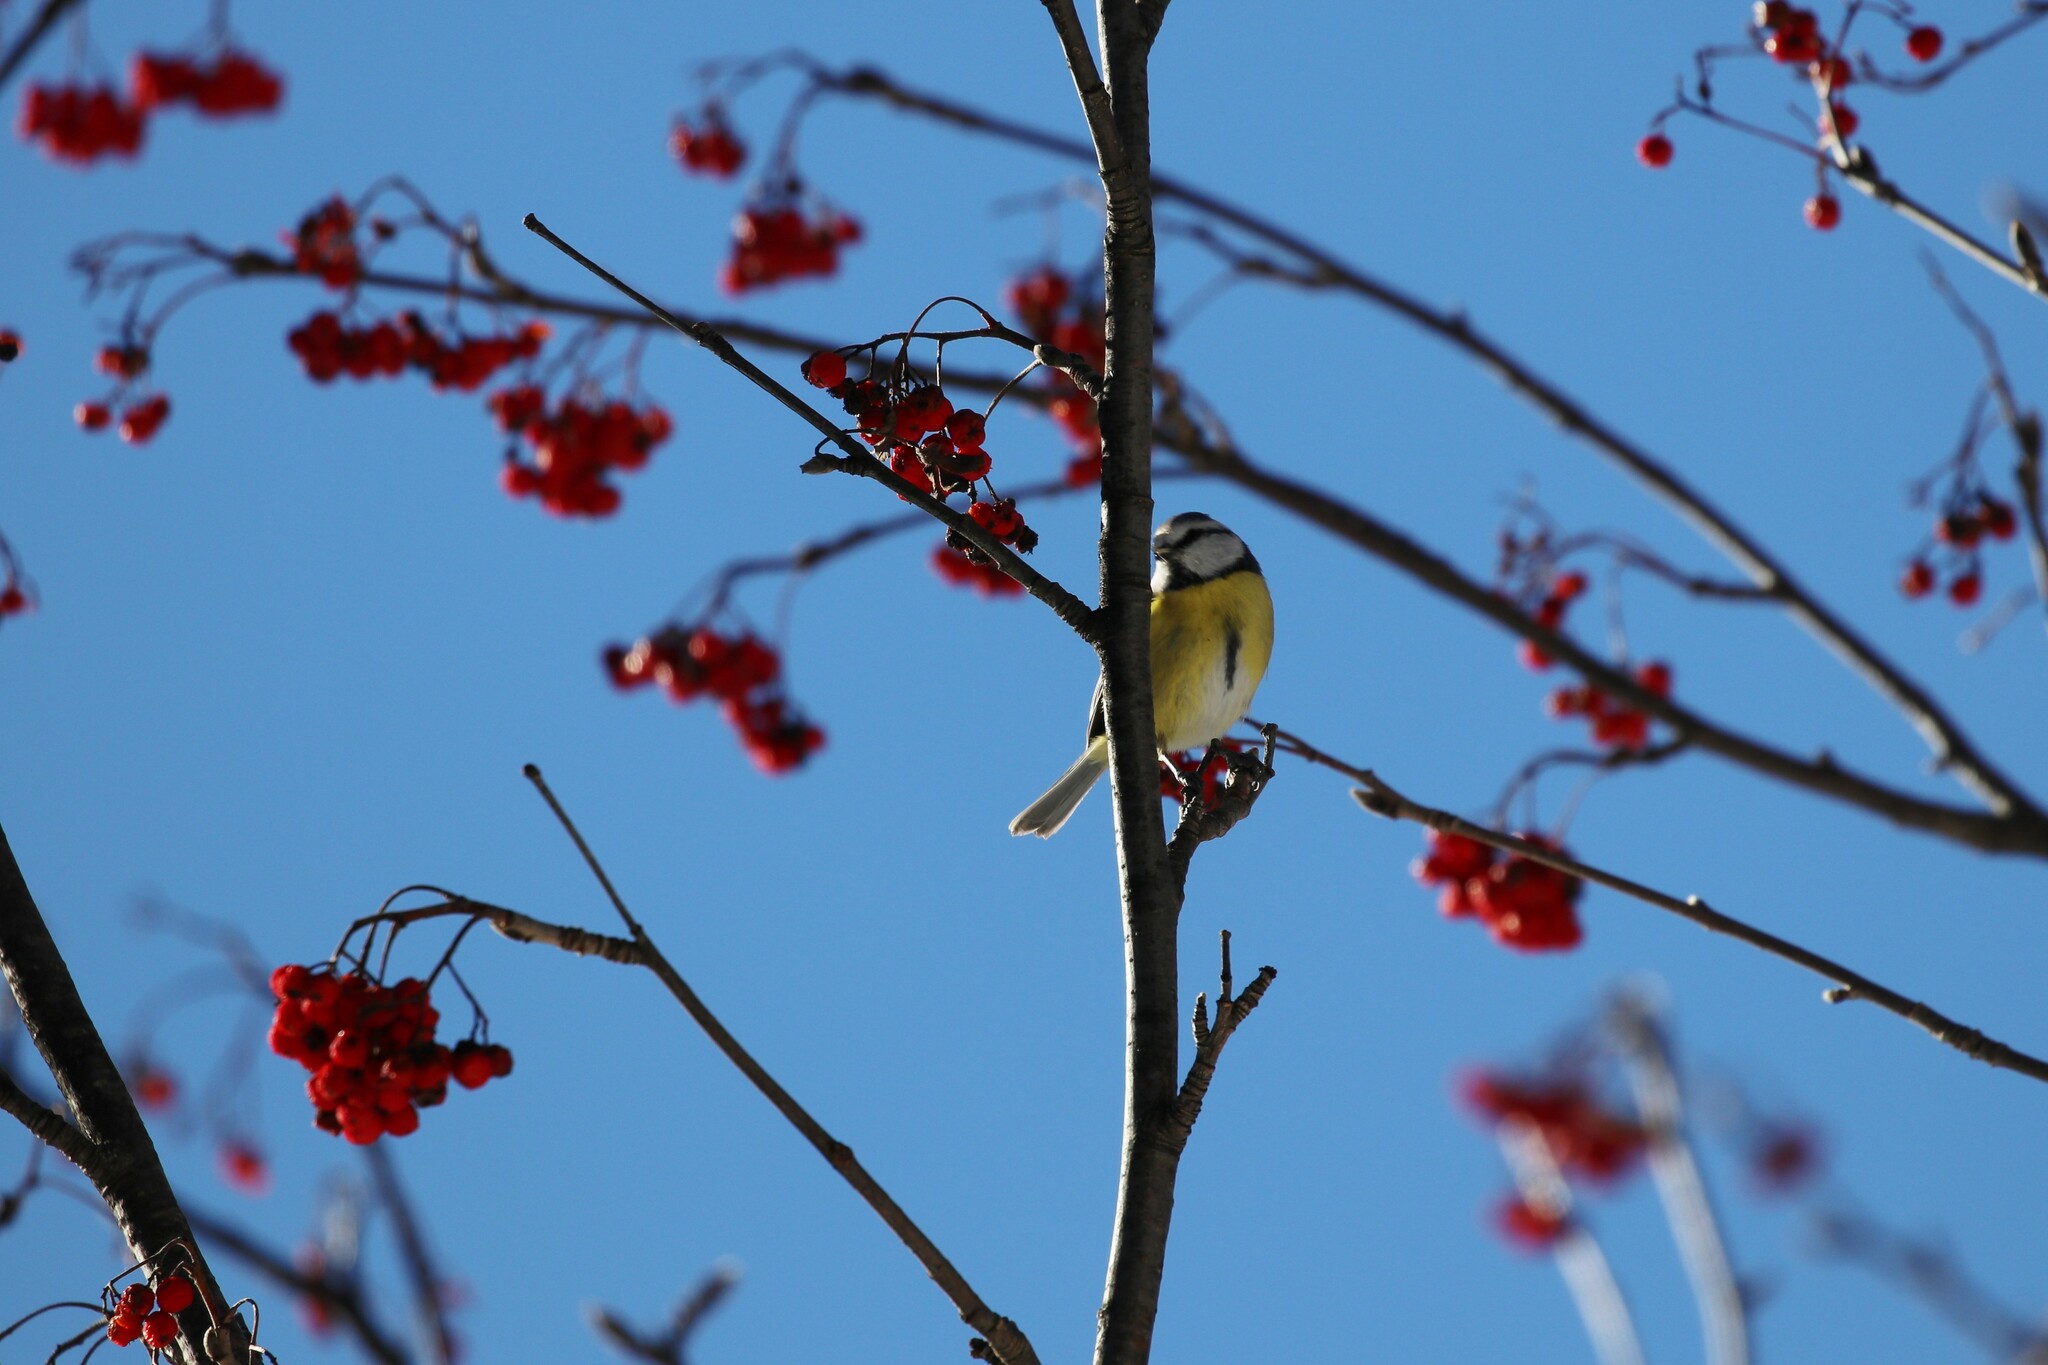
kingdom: Animalia
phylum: Chordata
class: Aves
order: Passeriformes
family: Paridae
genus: Cyanistes
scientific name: Cyanistes caeruleus
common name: Eurasian blue tit
